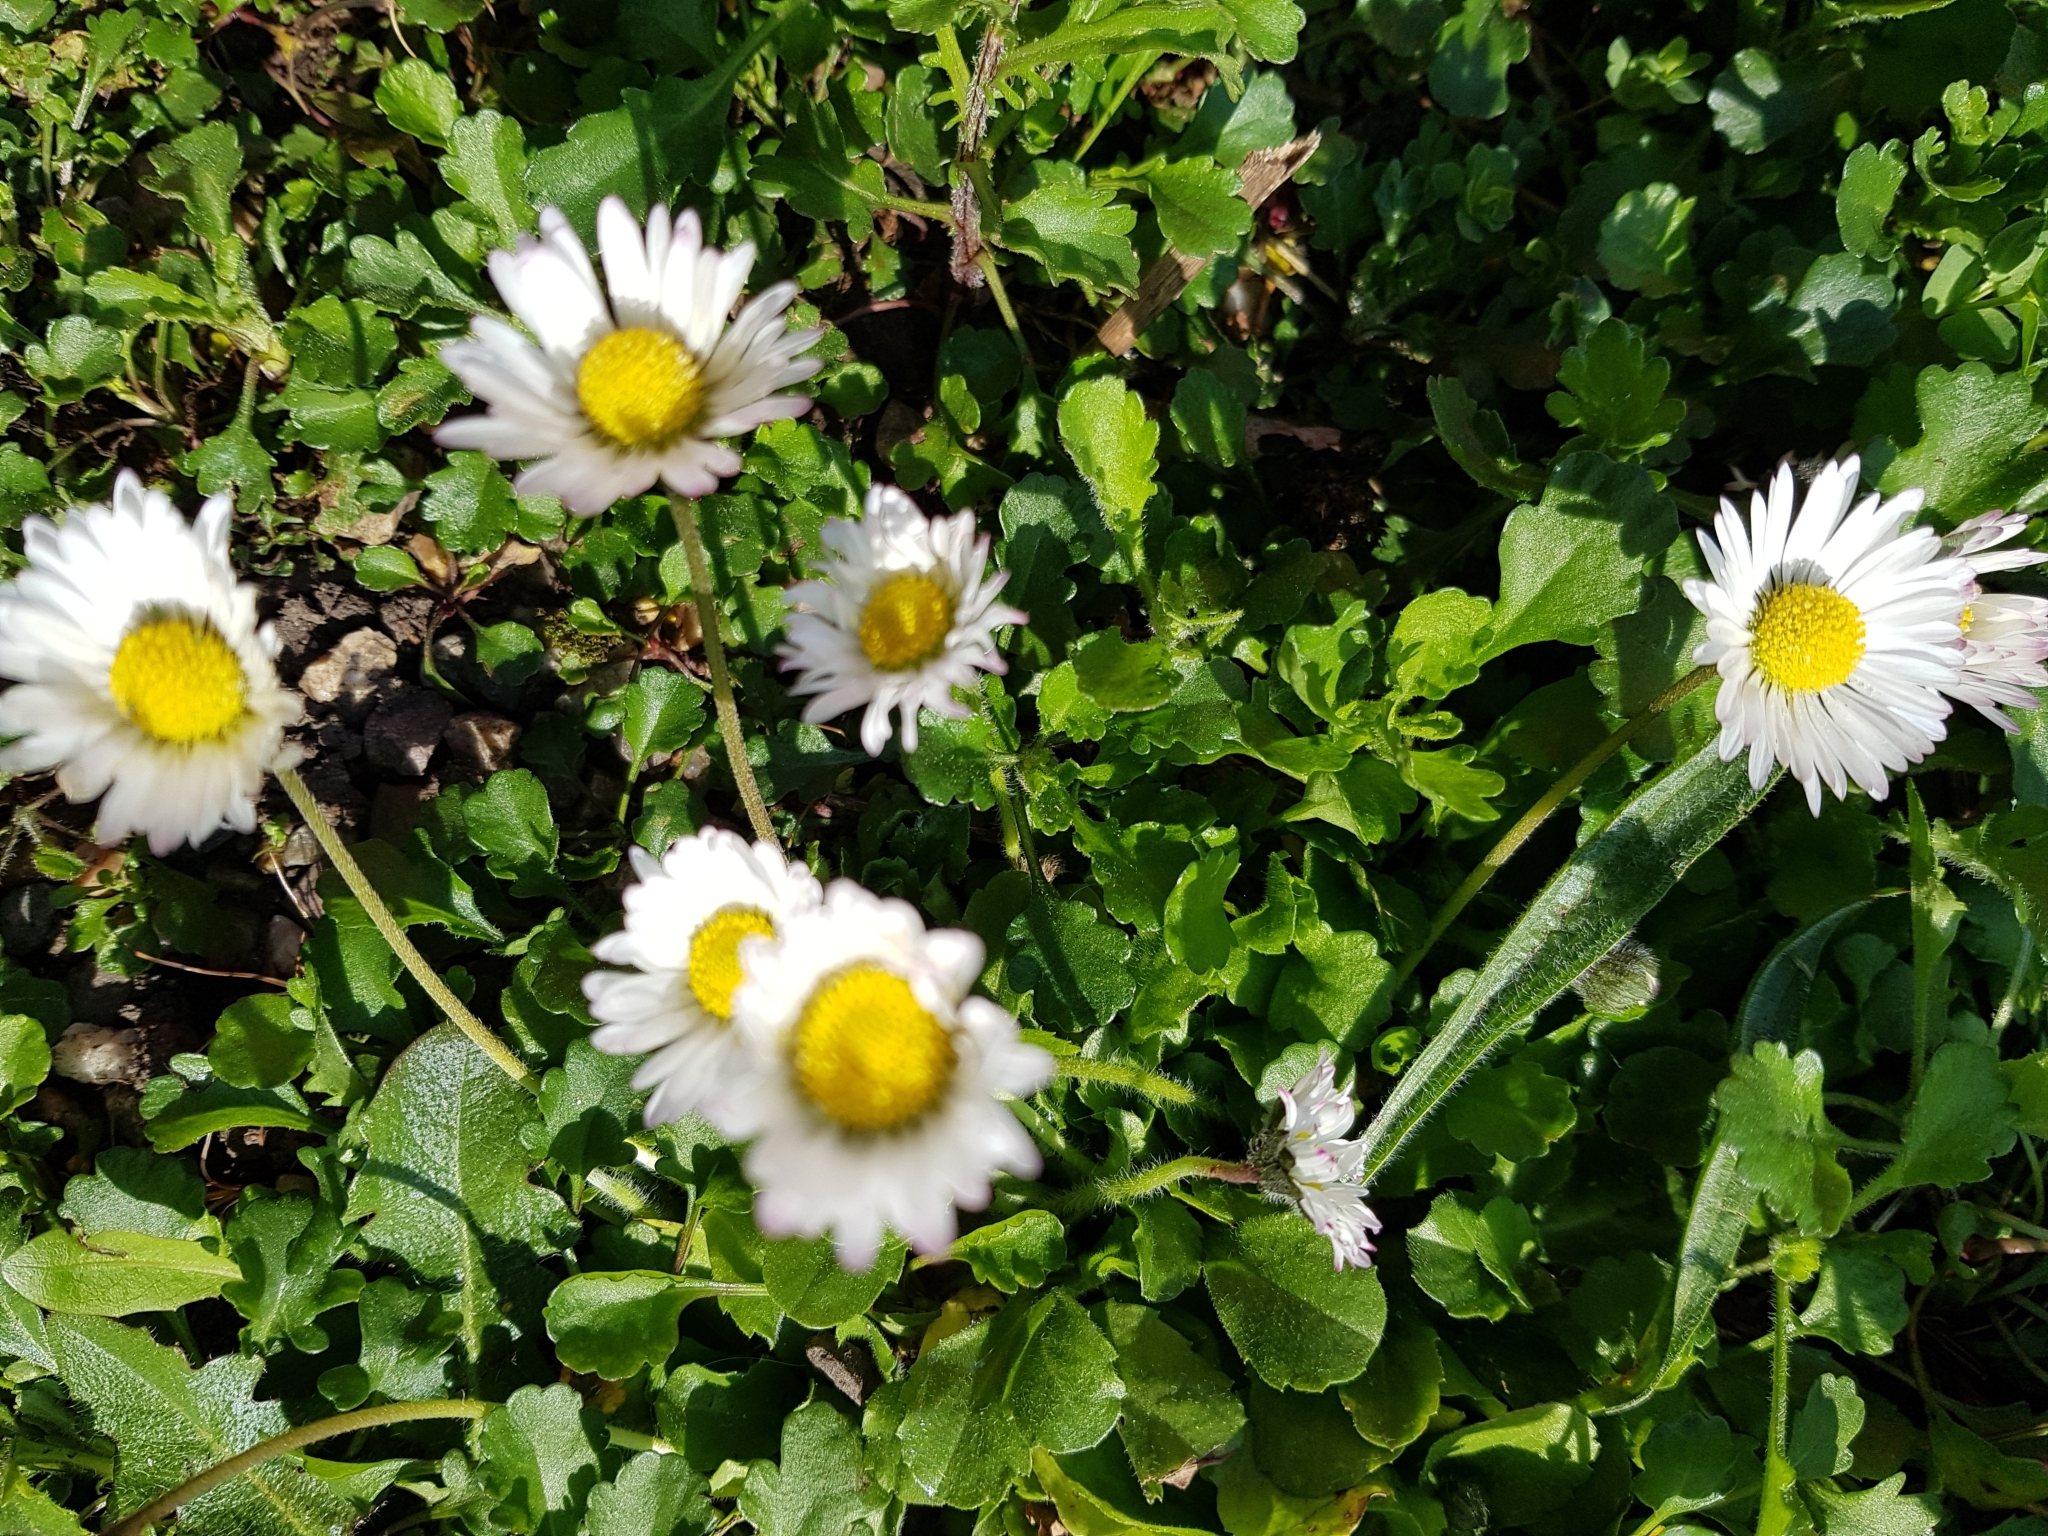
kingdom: Plantae
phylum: Tracheophyta
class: Magnoliopsida
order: Asterales
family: Asteraceae
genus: Bellis
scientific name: Bellis perennis
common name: Lawndaisy
